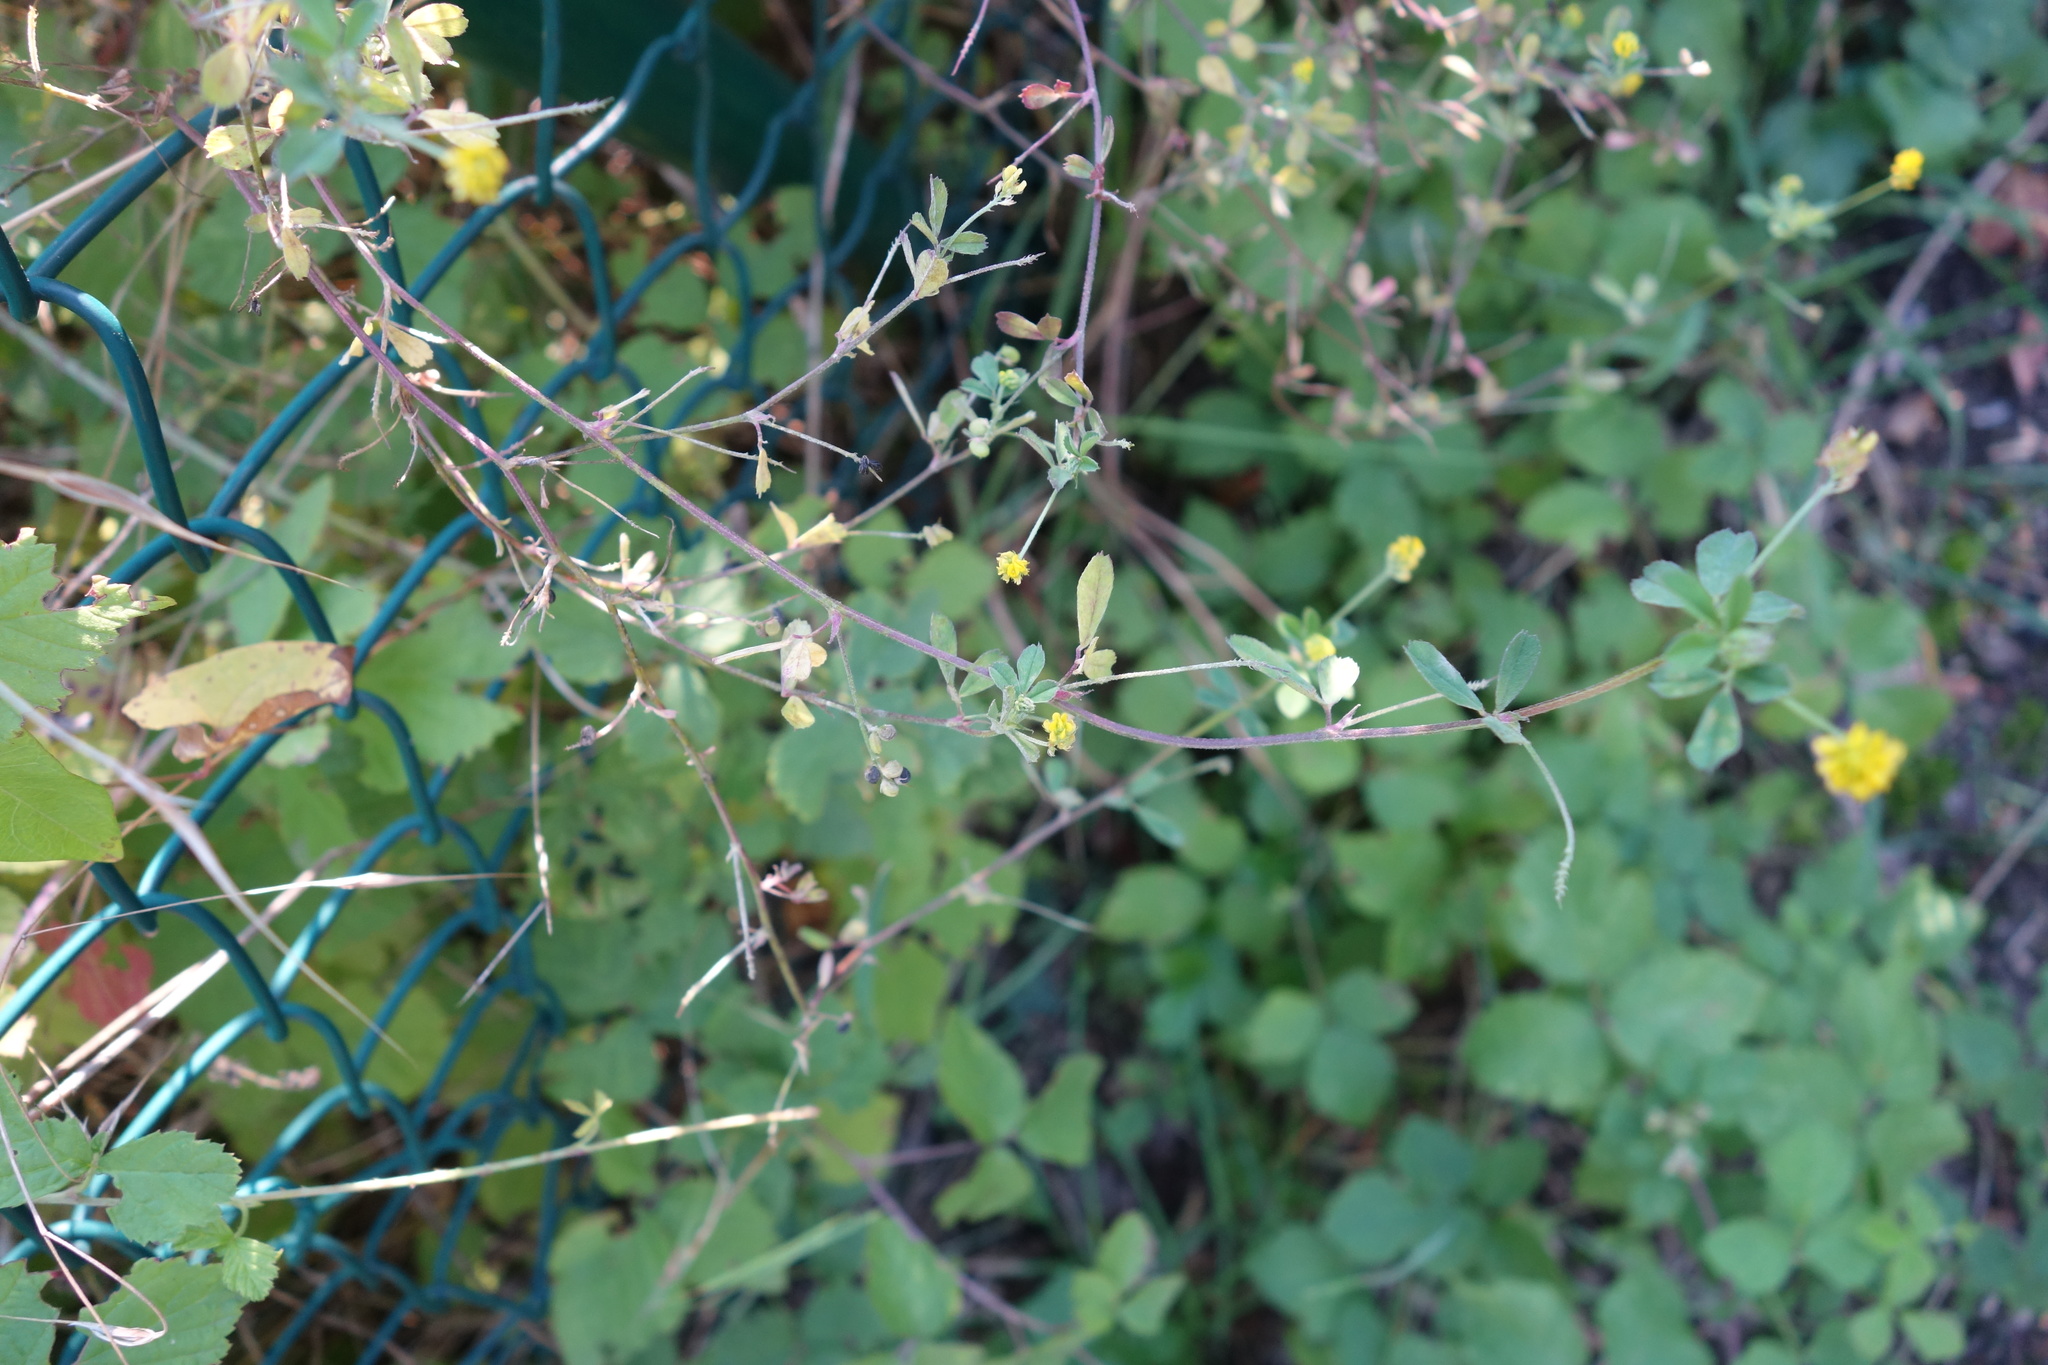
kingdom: Plantae
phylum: Tracheophyta
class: Magnoliopsida
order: Fabales
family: Fabaceae
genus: Medicago
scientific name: Medicago lupulina
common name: Black medick
